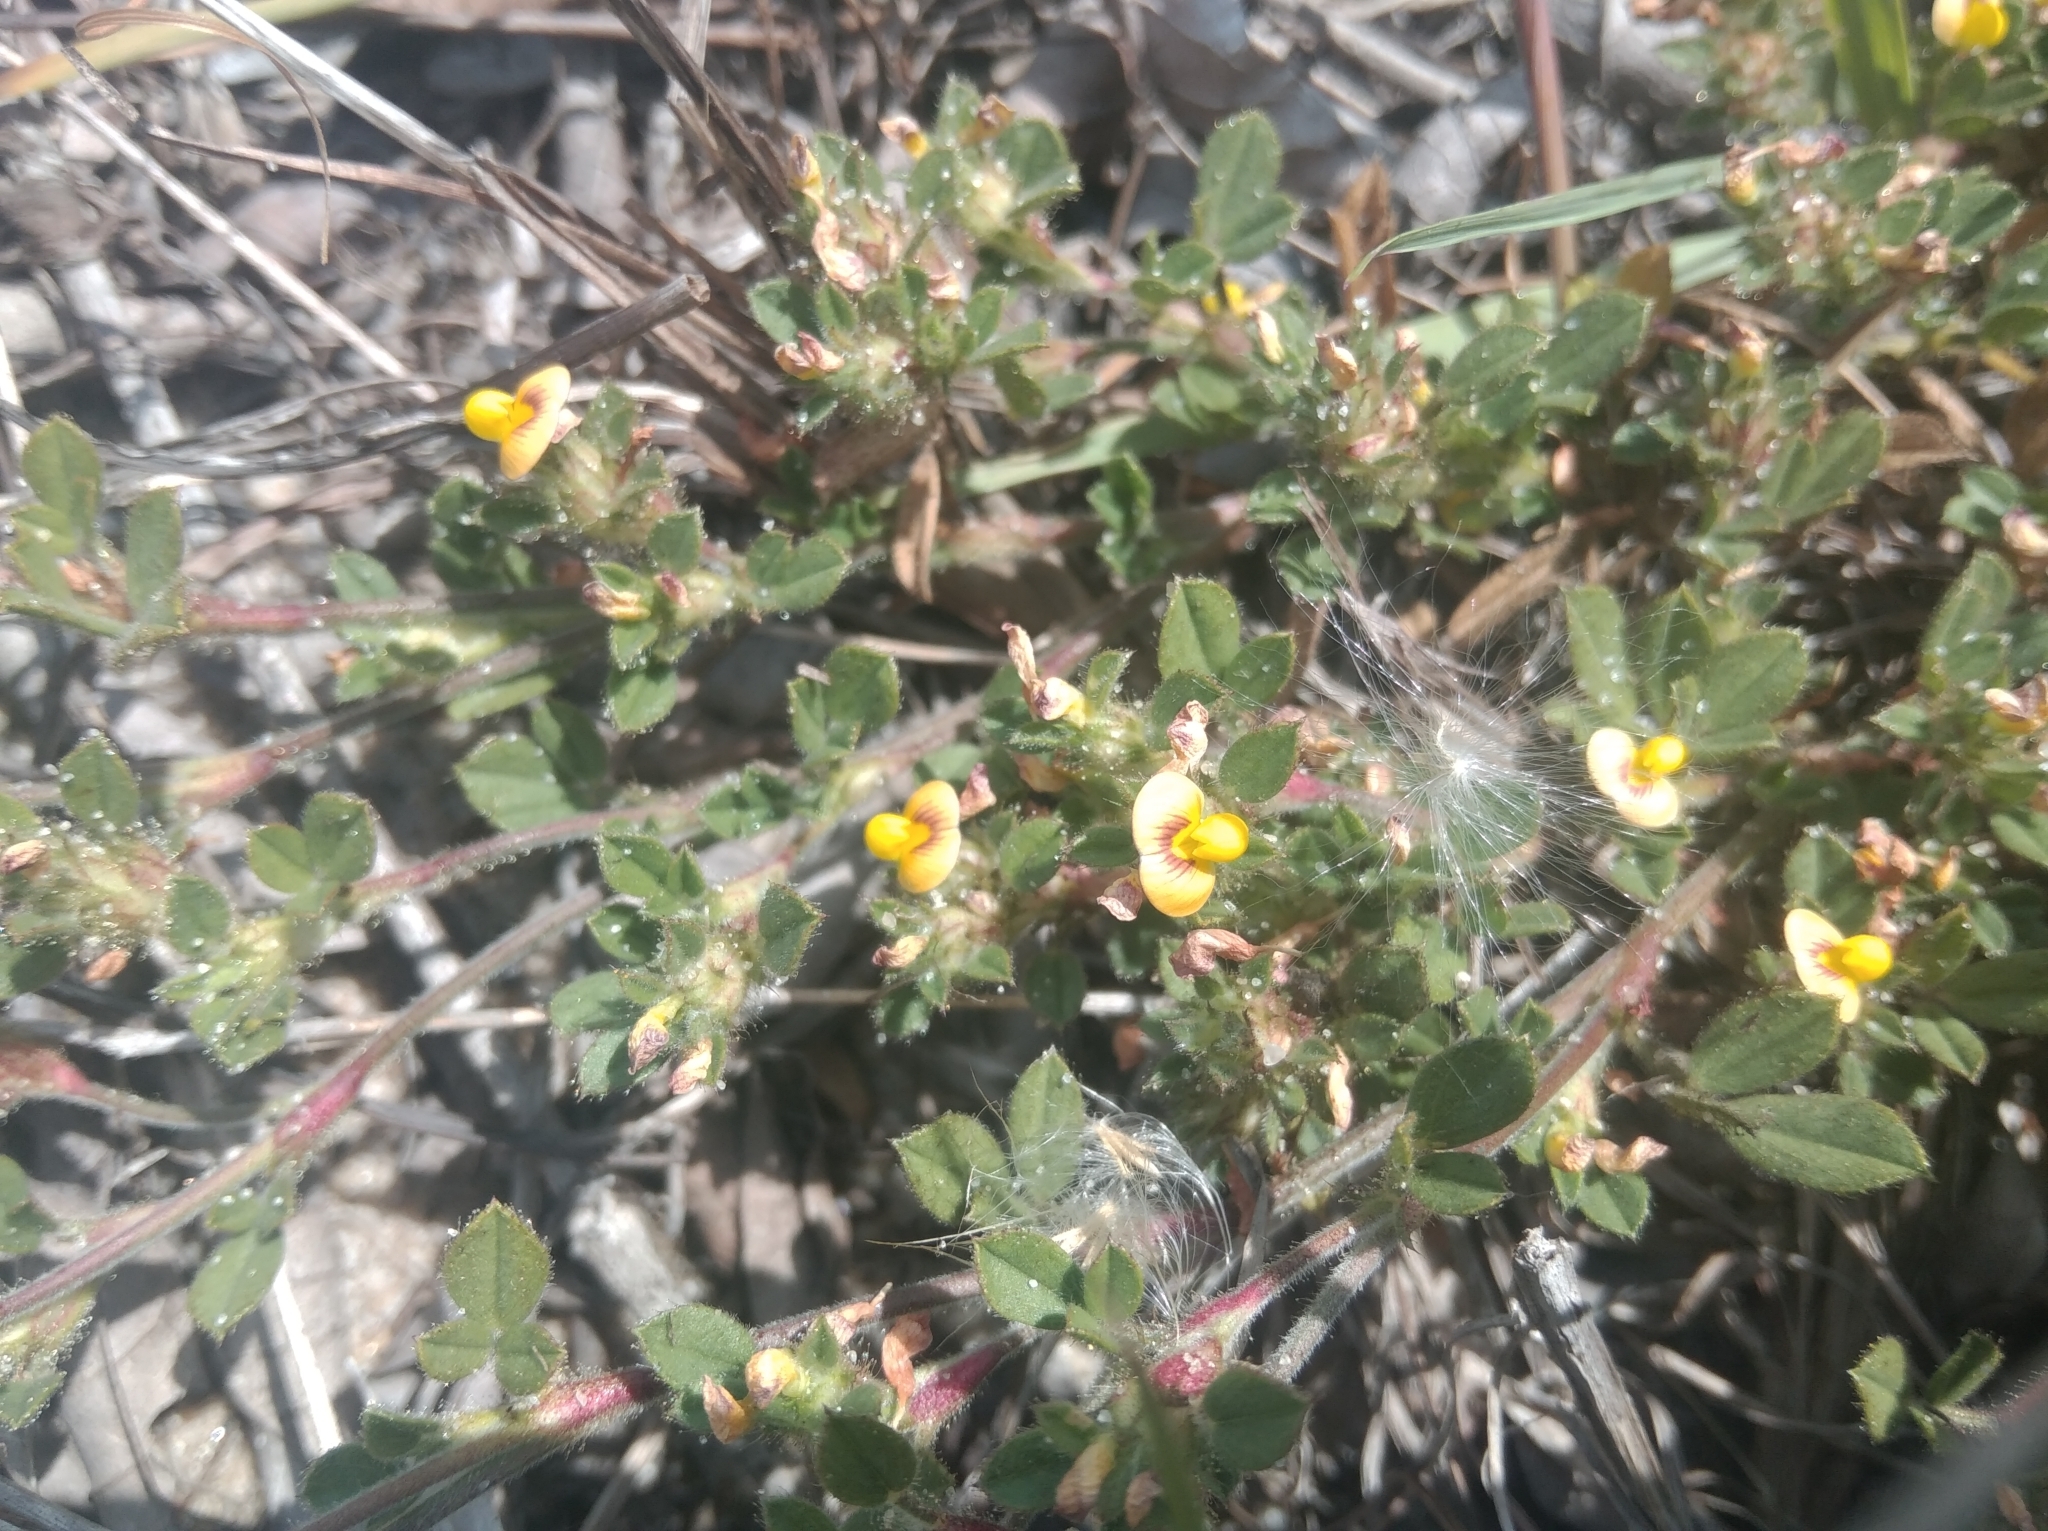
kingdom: Plantae
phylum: Tracheophyta
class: Magnoliopsida
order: Fabales
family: Fabaceae
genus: Stylosanthes
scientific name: Stylosanthes viscosa
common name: Viscid pencil-flower
